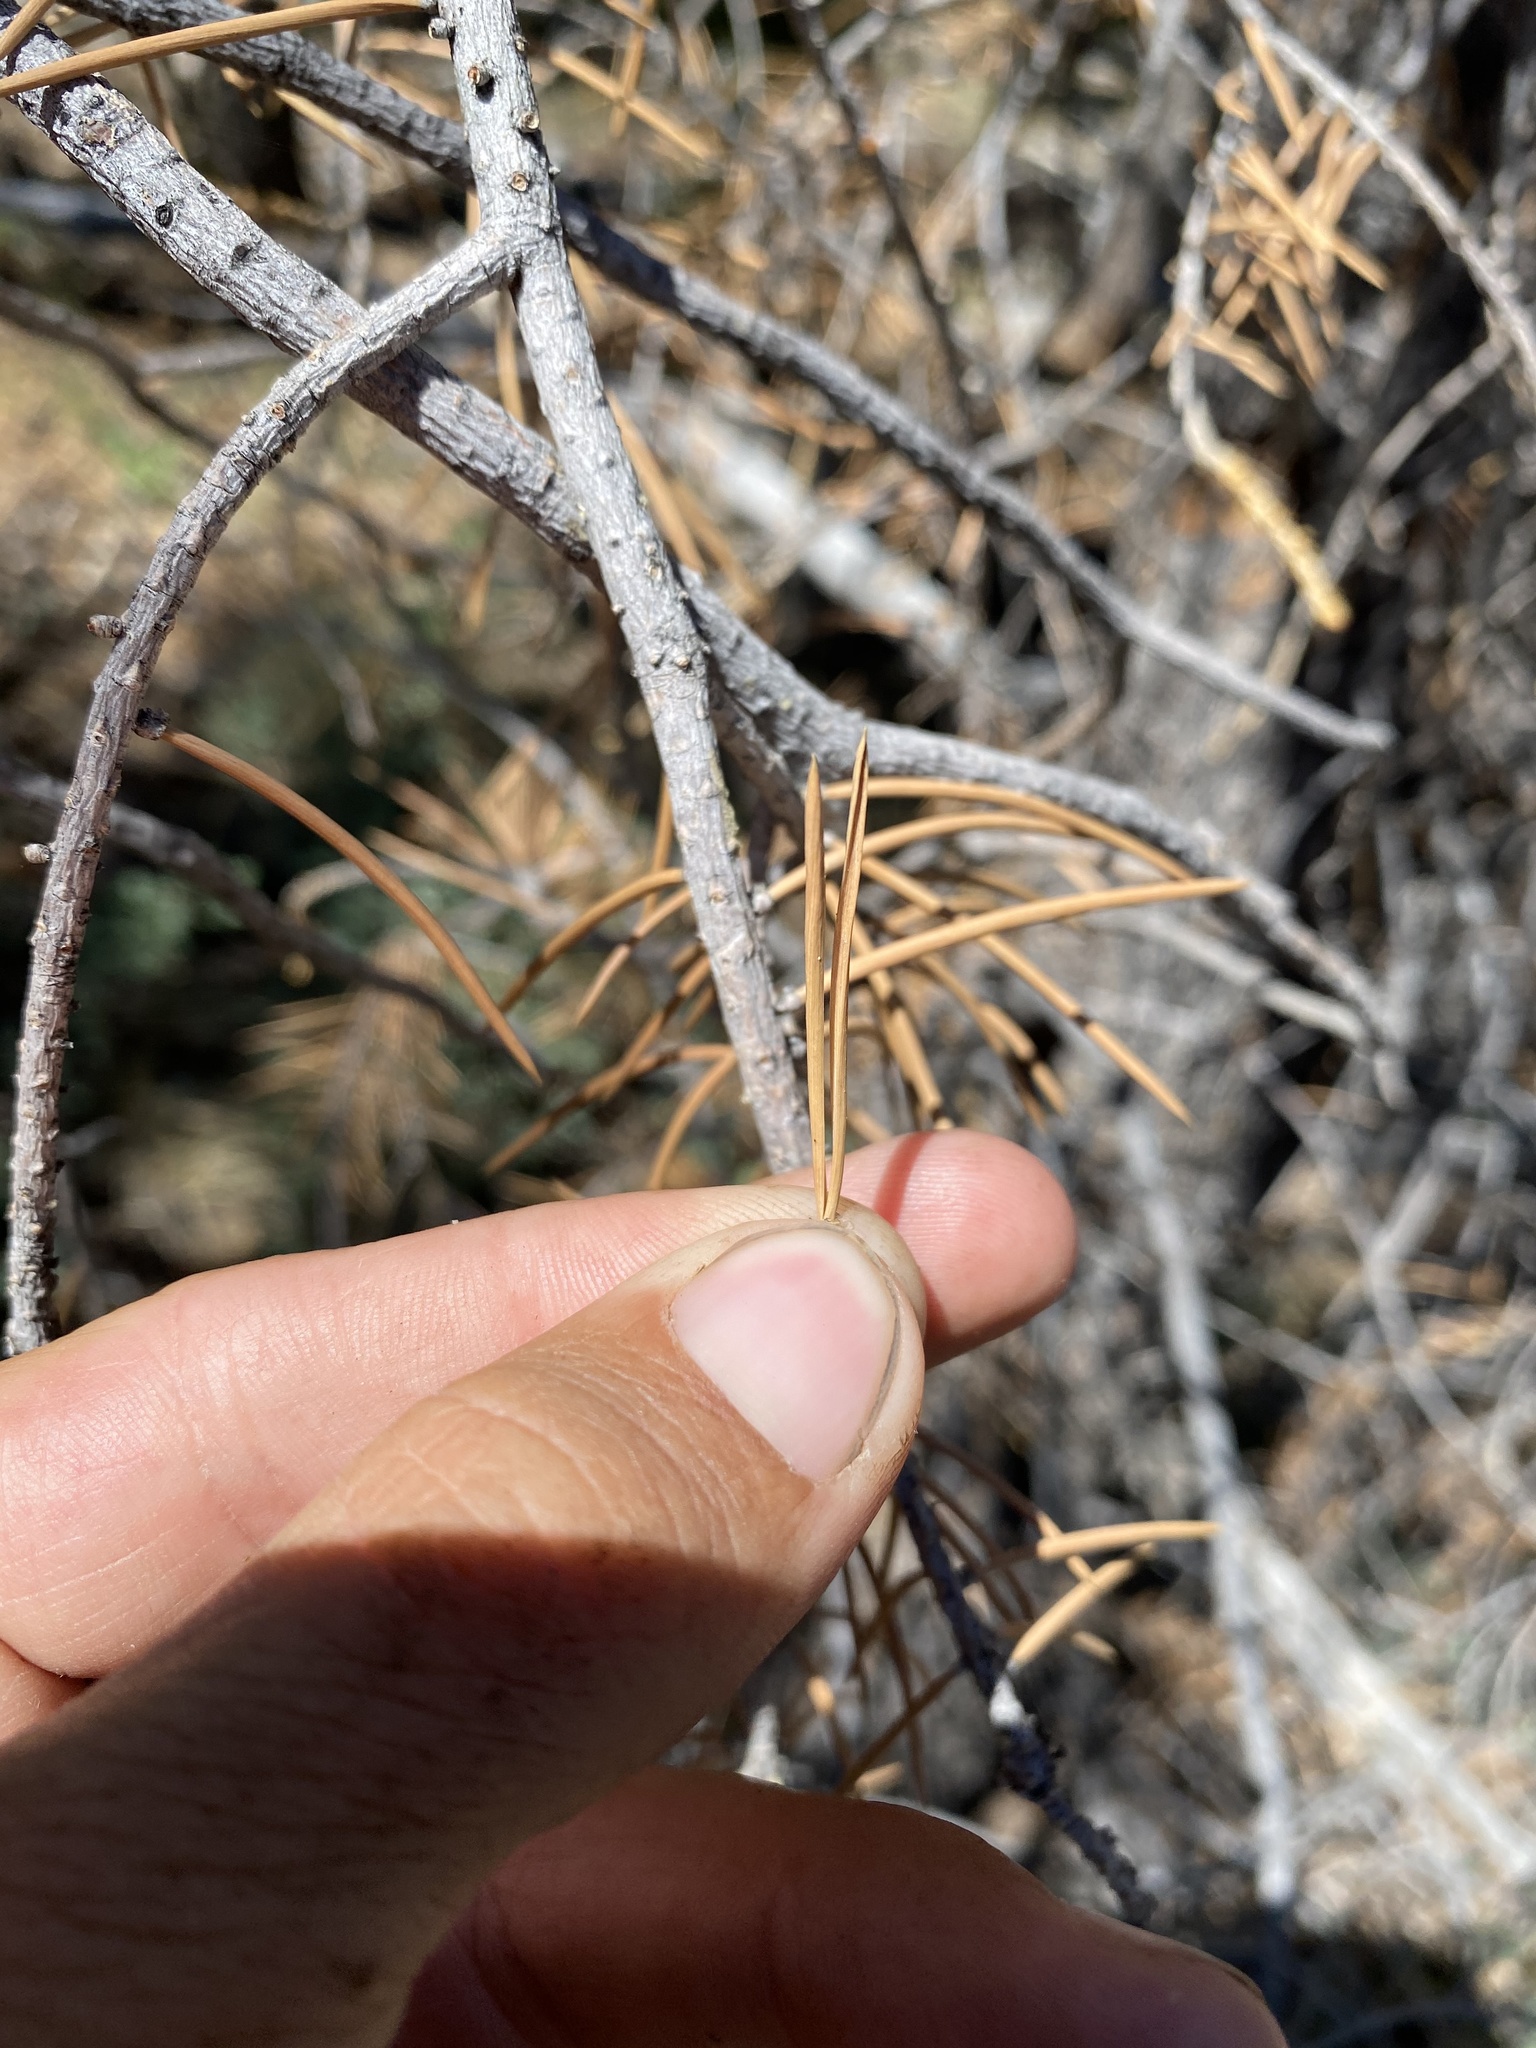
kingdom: Plantae
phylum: Tracheophyta
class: Pinopsida
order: Pinales
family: Pinaceae
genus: Pinus
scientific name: Pinus monophylla
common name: One-leaved nut pine
